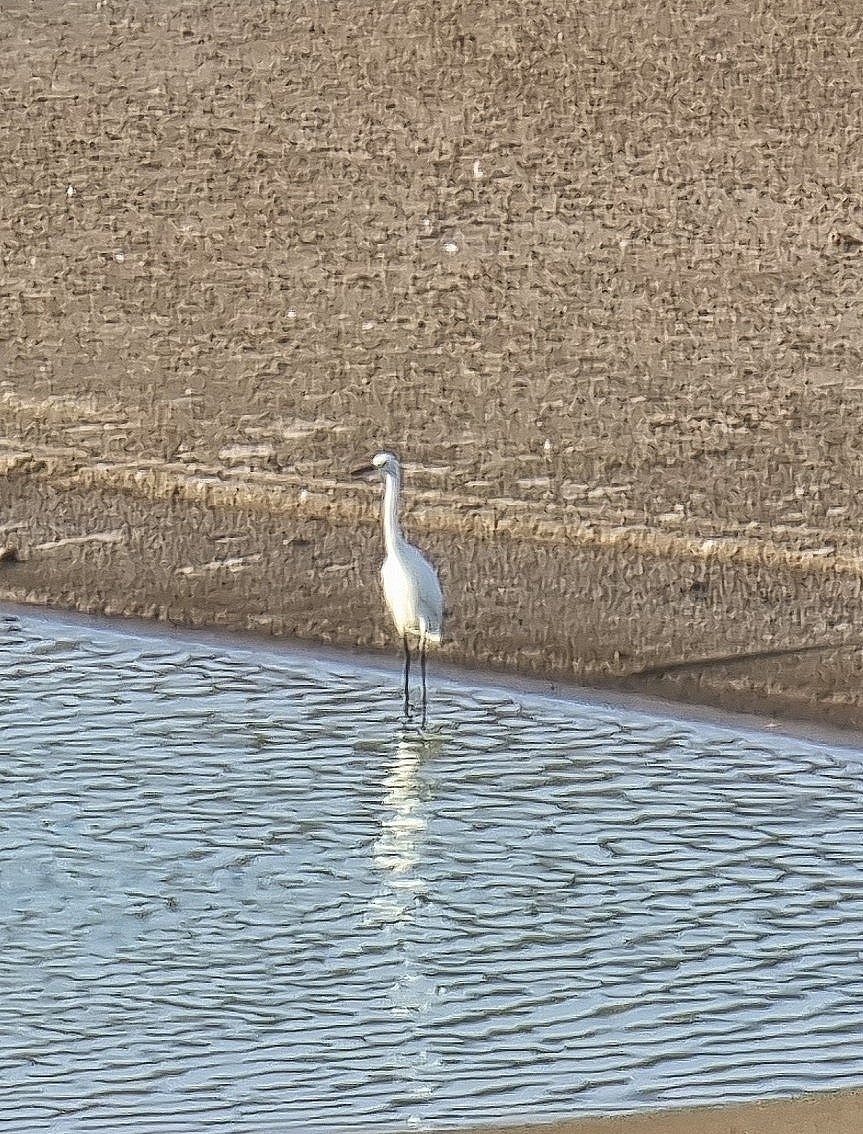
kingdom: Animalia
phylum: Chordata
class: Aves
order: Pelecaniformes
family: Ardeidae
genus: Egretta
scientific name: Egretta garzetta
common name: Little egret
